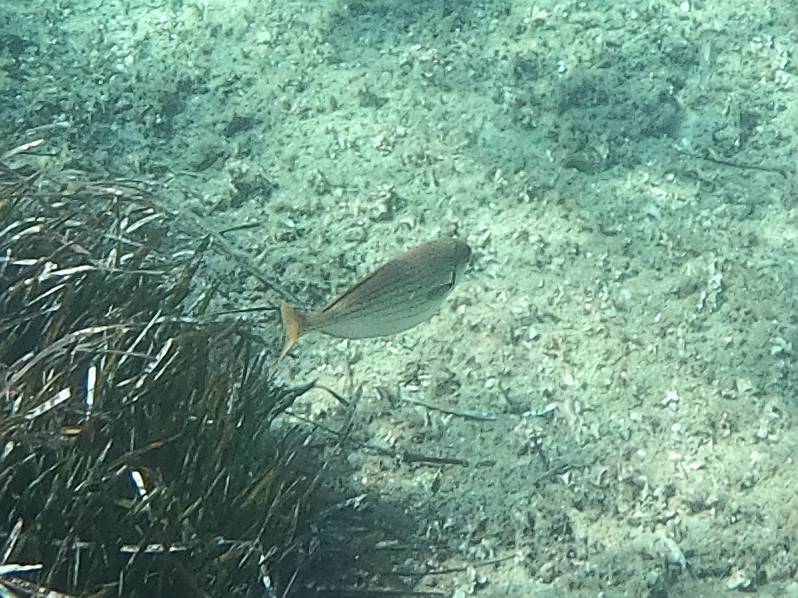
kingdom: Animalia
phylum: Chordata
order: Perciformes
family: Sparidae
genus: Sarpa
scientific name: Sarpa salpa
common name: Salema
